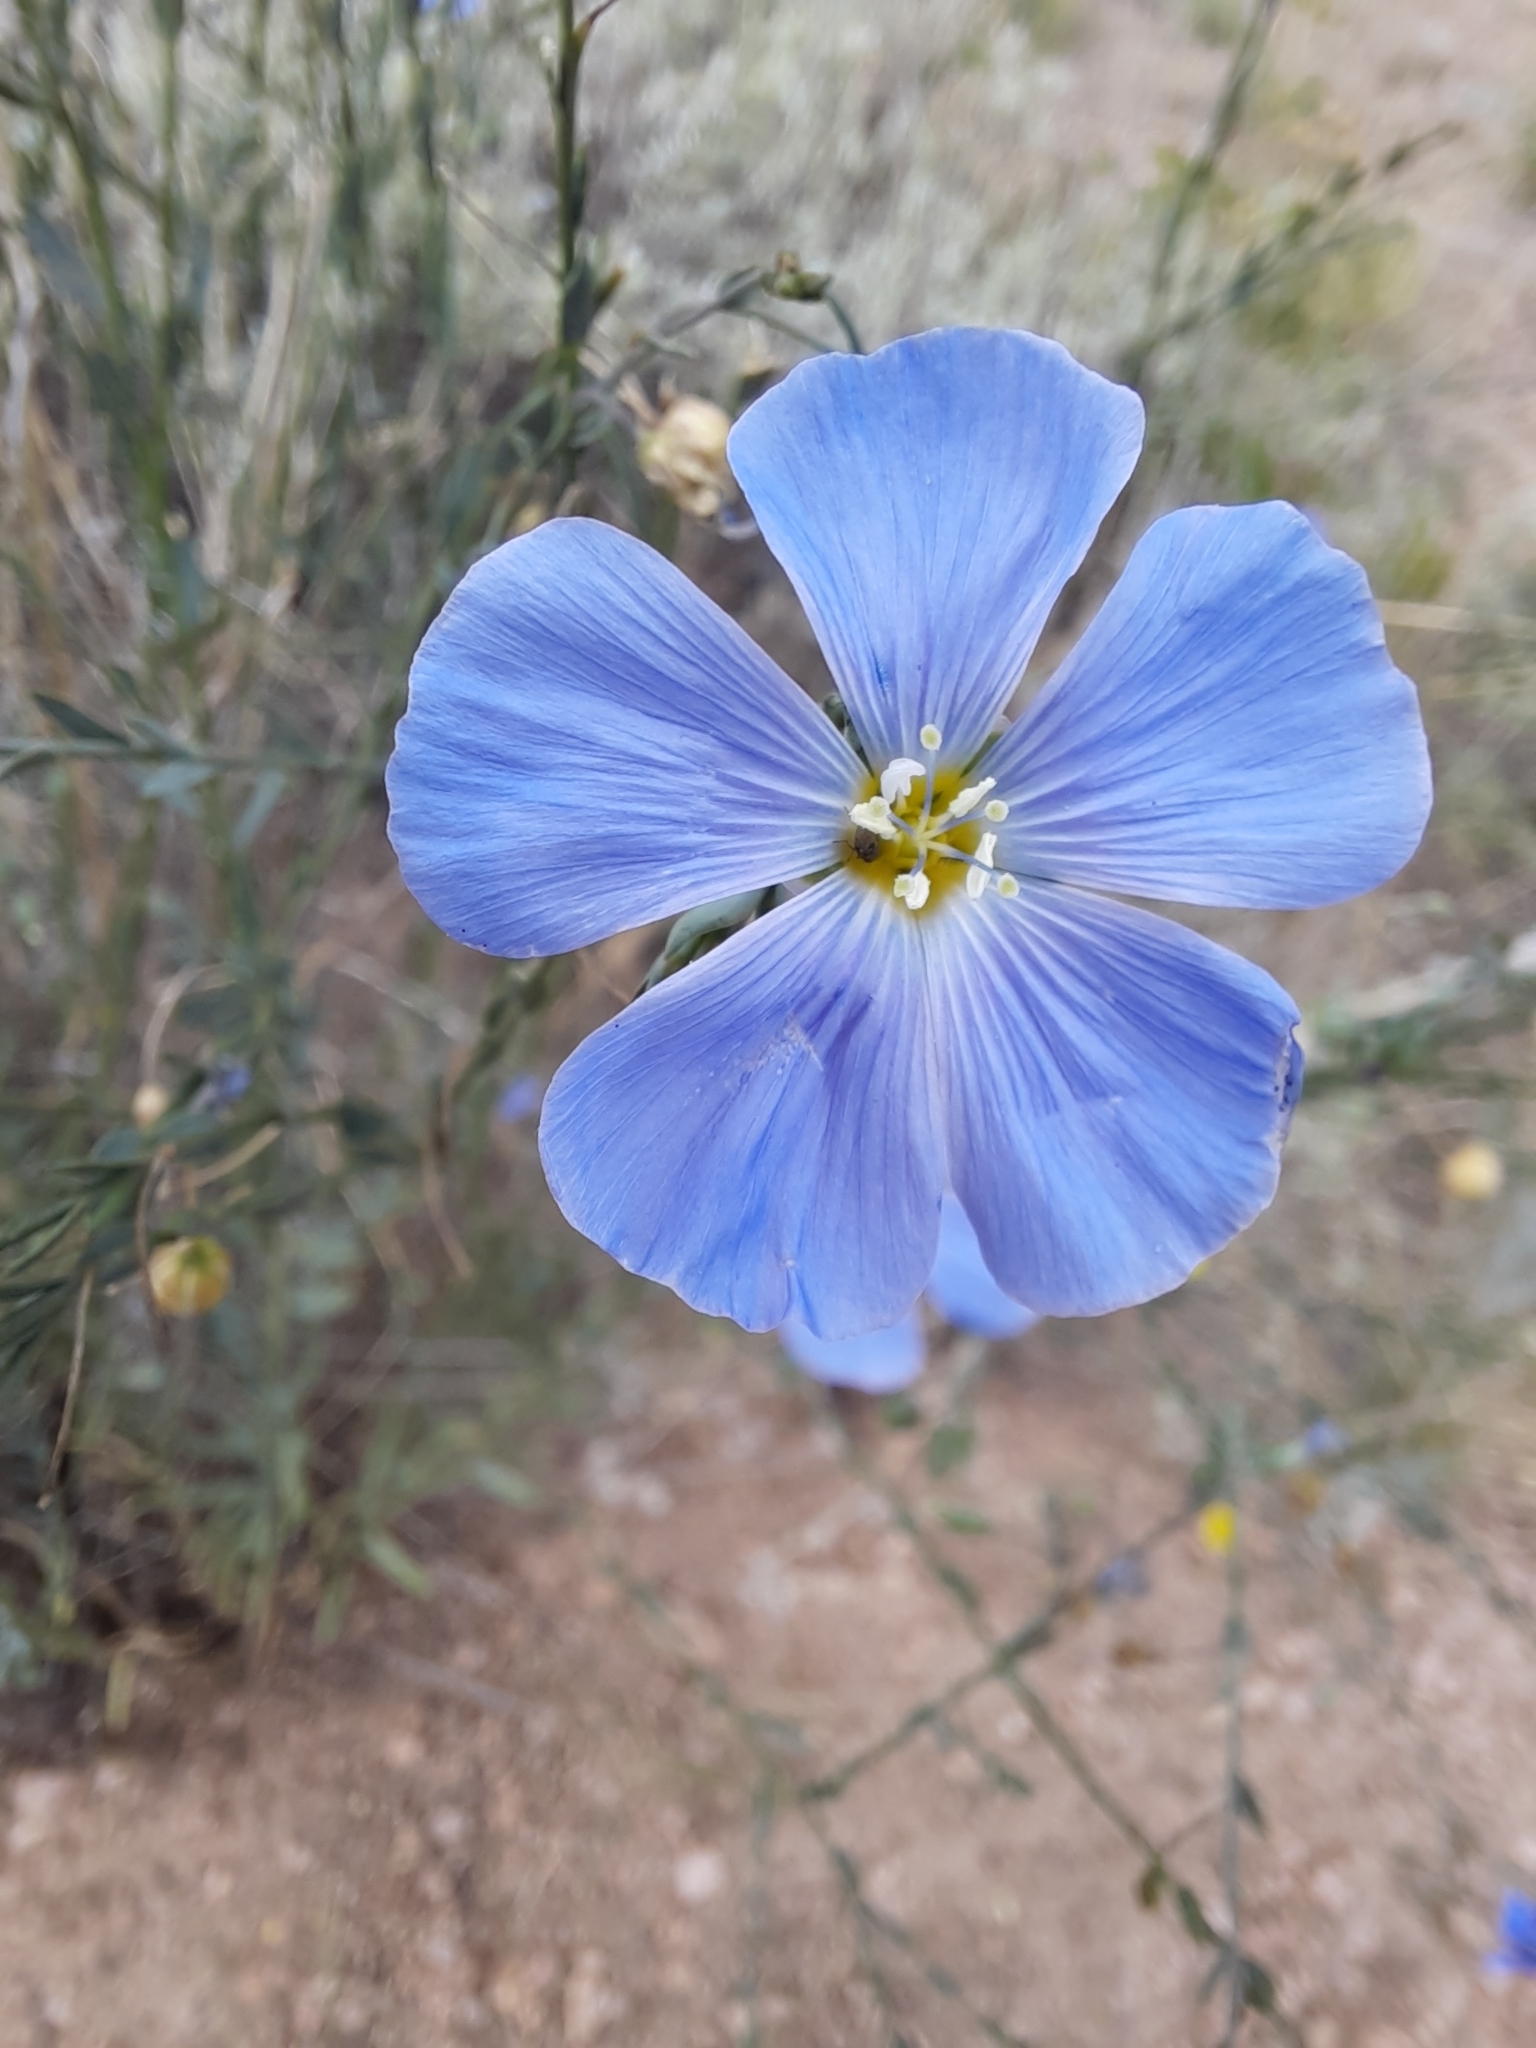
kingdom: Plantae
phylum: Tracheophyta
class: Magnoliopsida
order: Malpighiales
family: Linaceae
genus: Linum
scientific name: Linum lewisii
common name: Prairie flax
